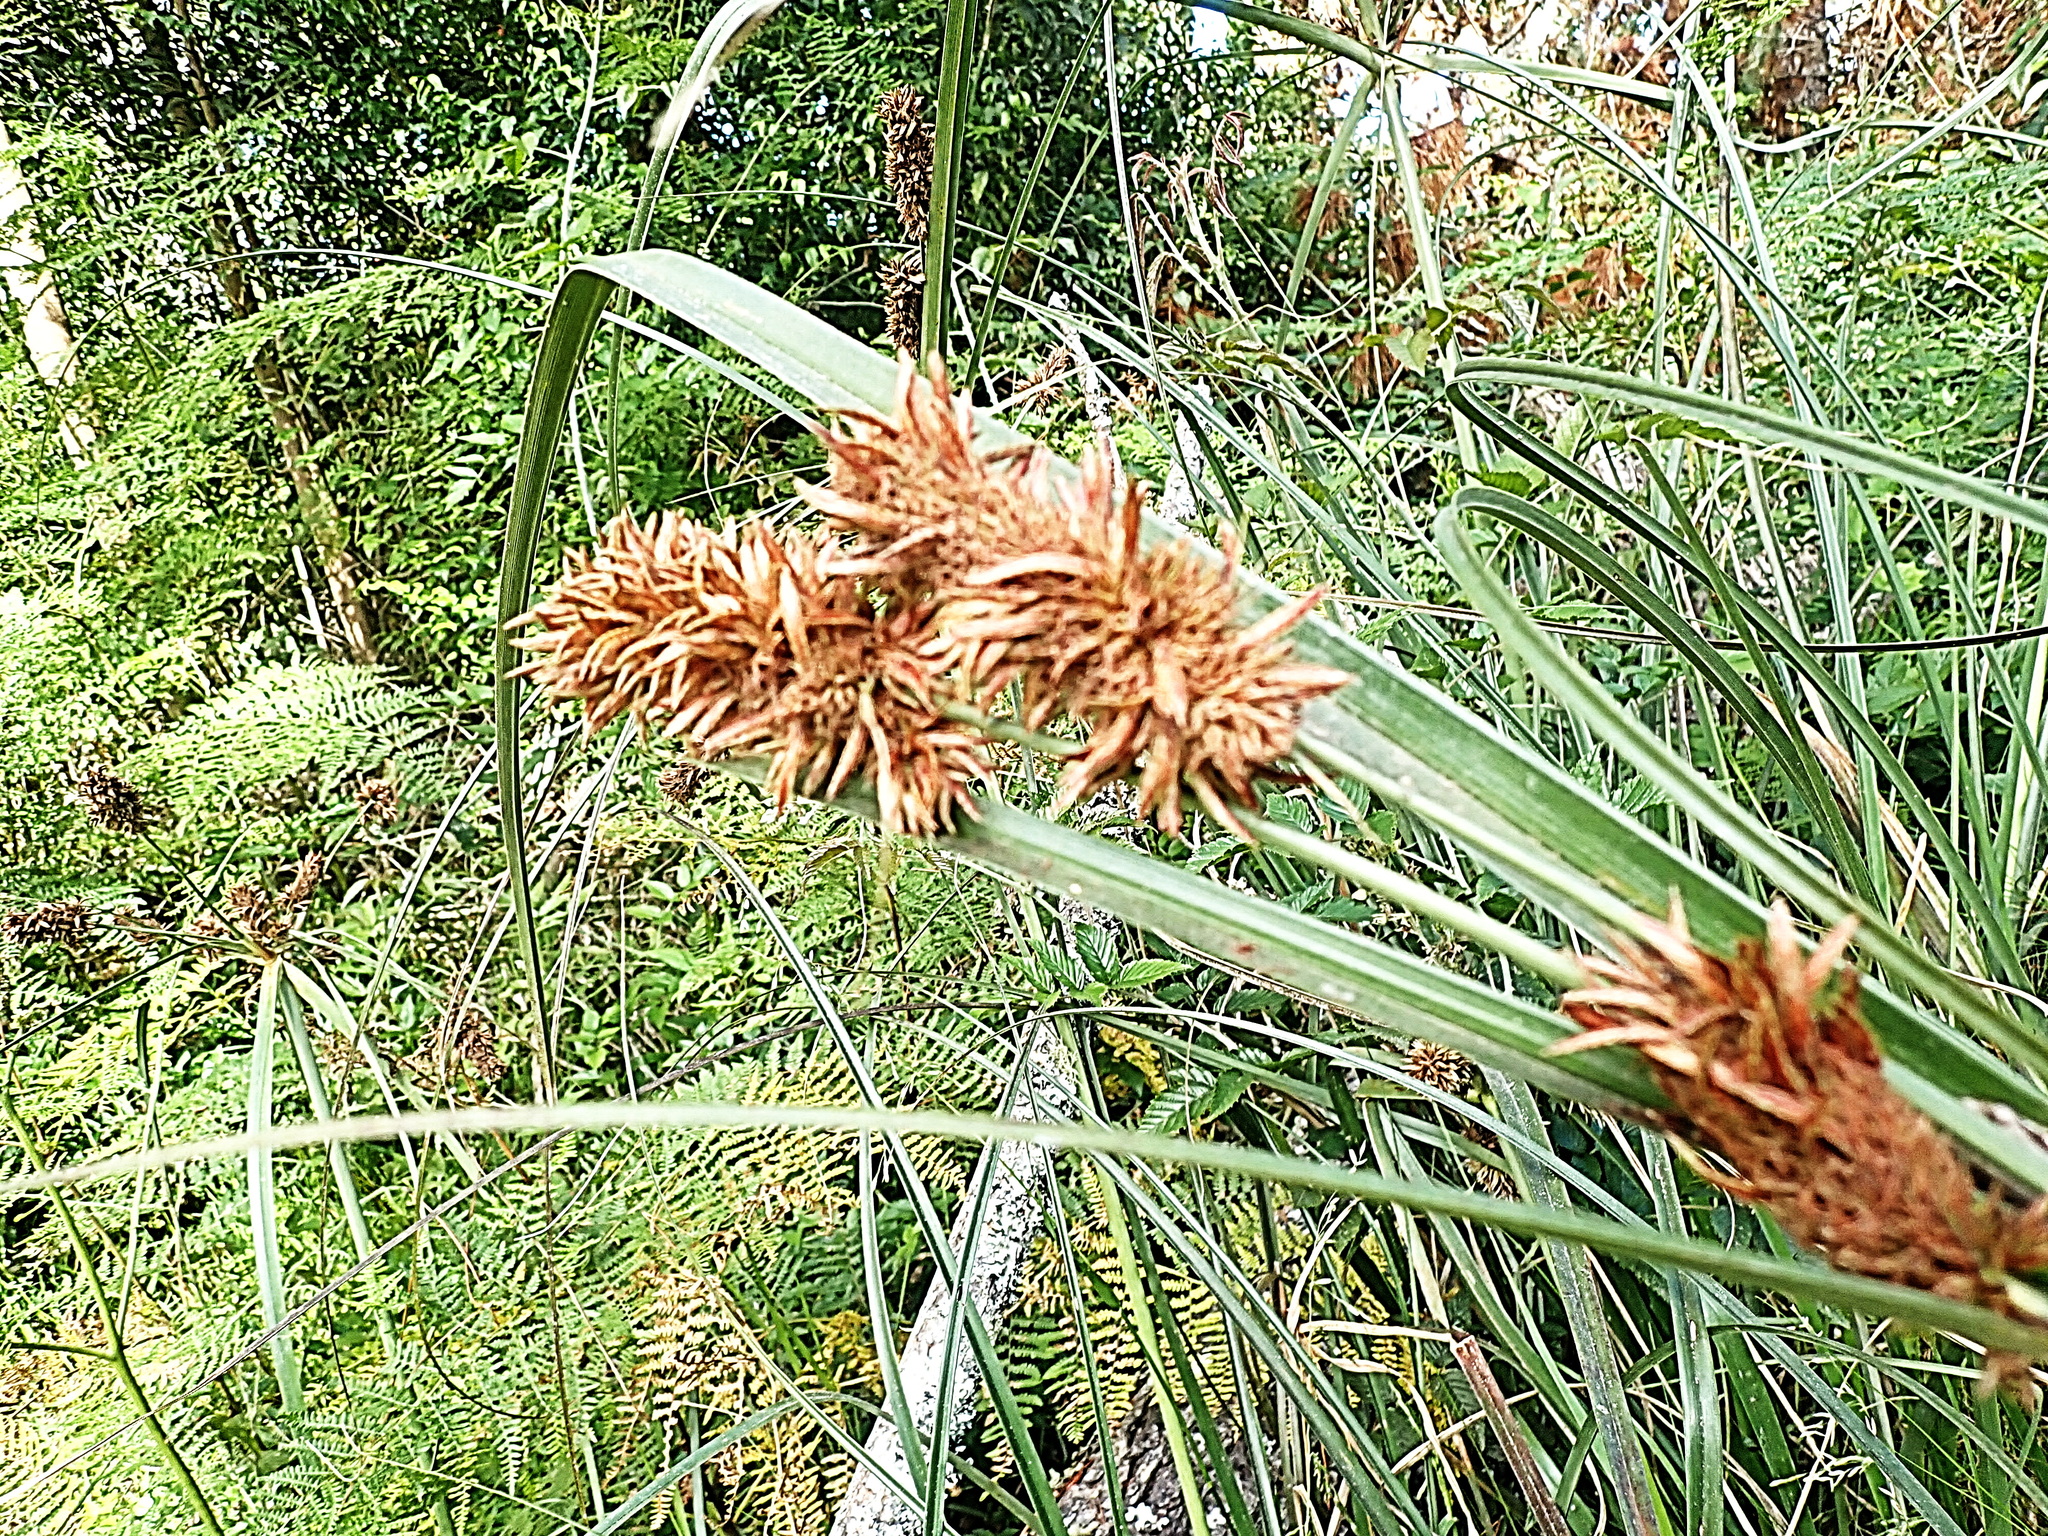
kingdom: Plantae
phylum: Tracheophyta
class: Liliopsida
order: Poales
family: Cyperaceae
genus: Cyperus
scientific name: Cyperus thunbergii
